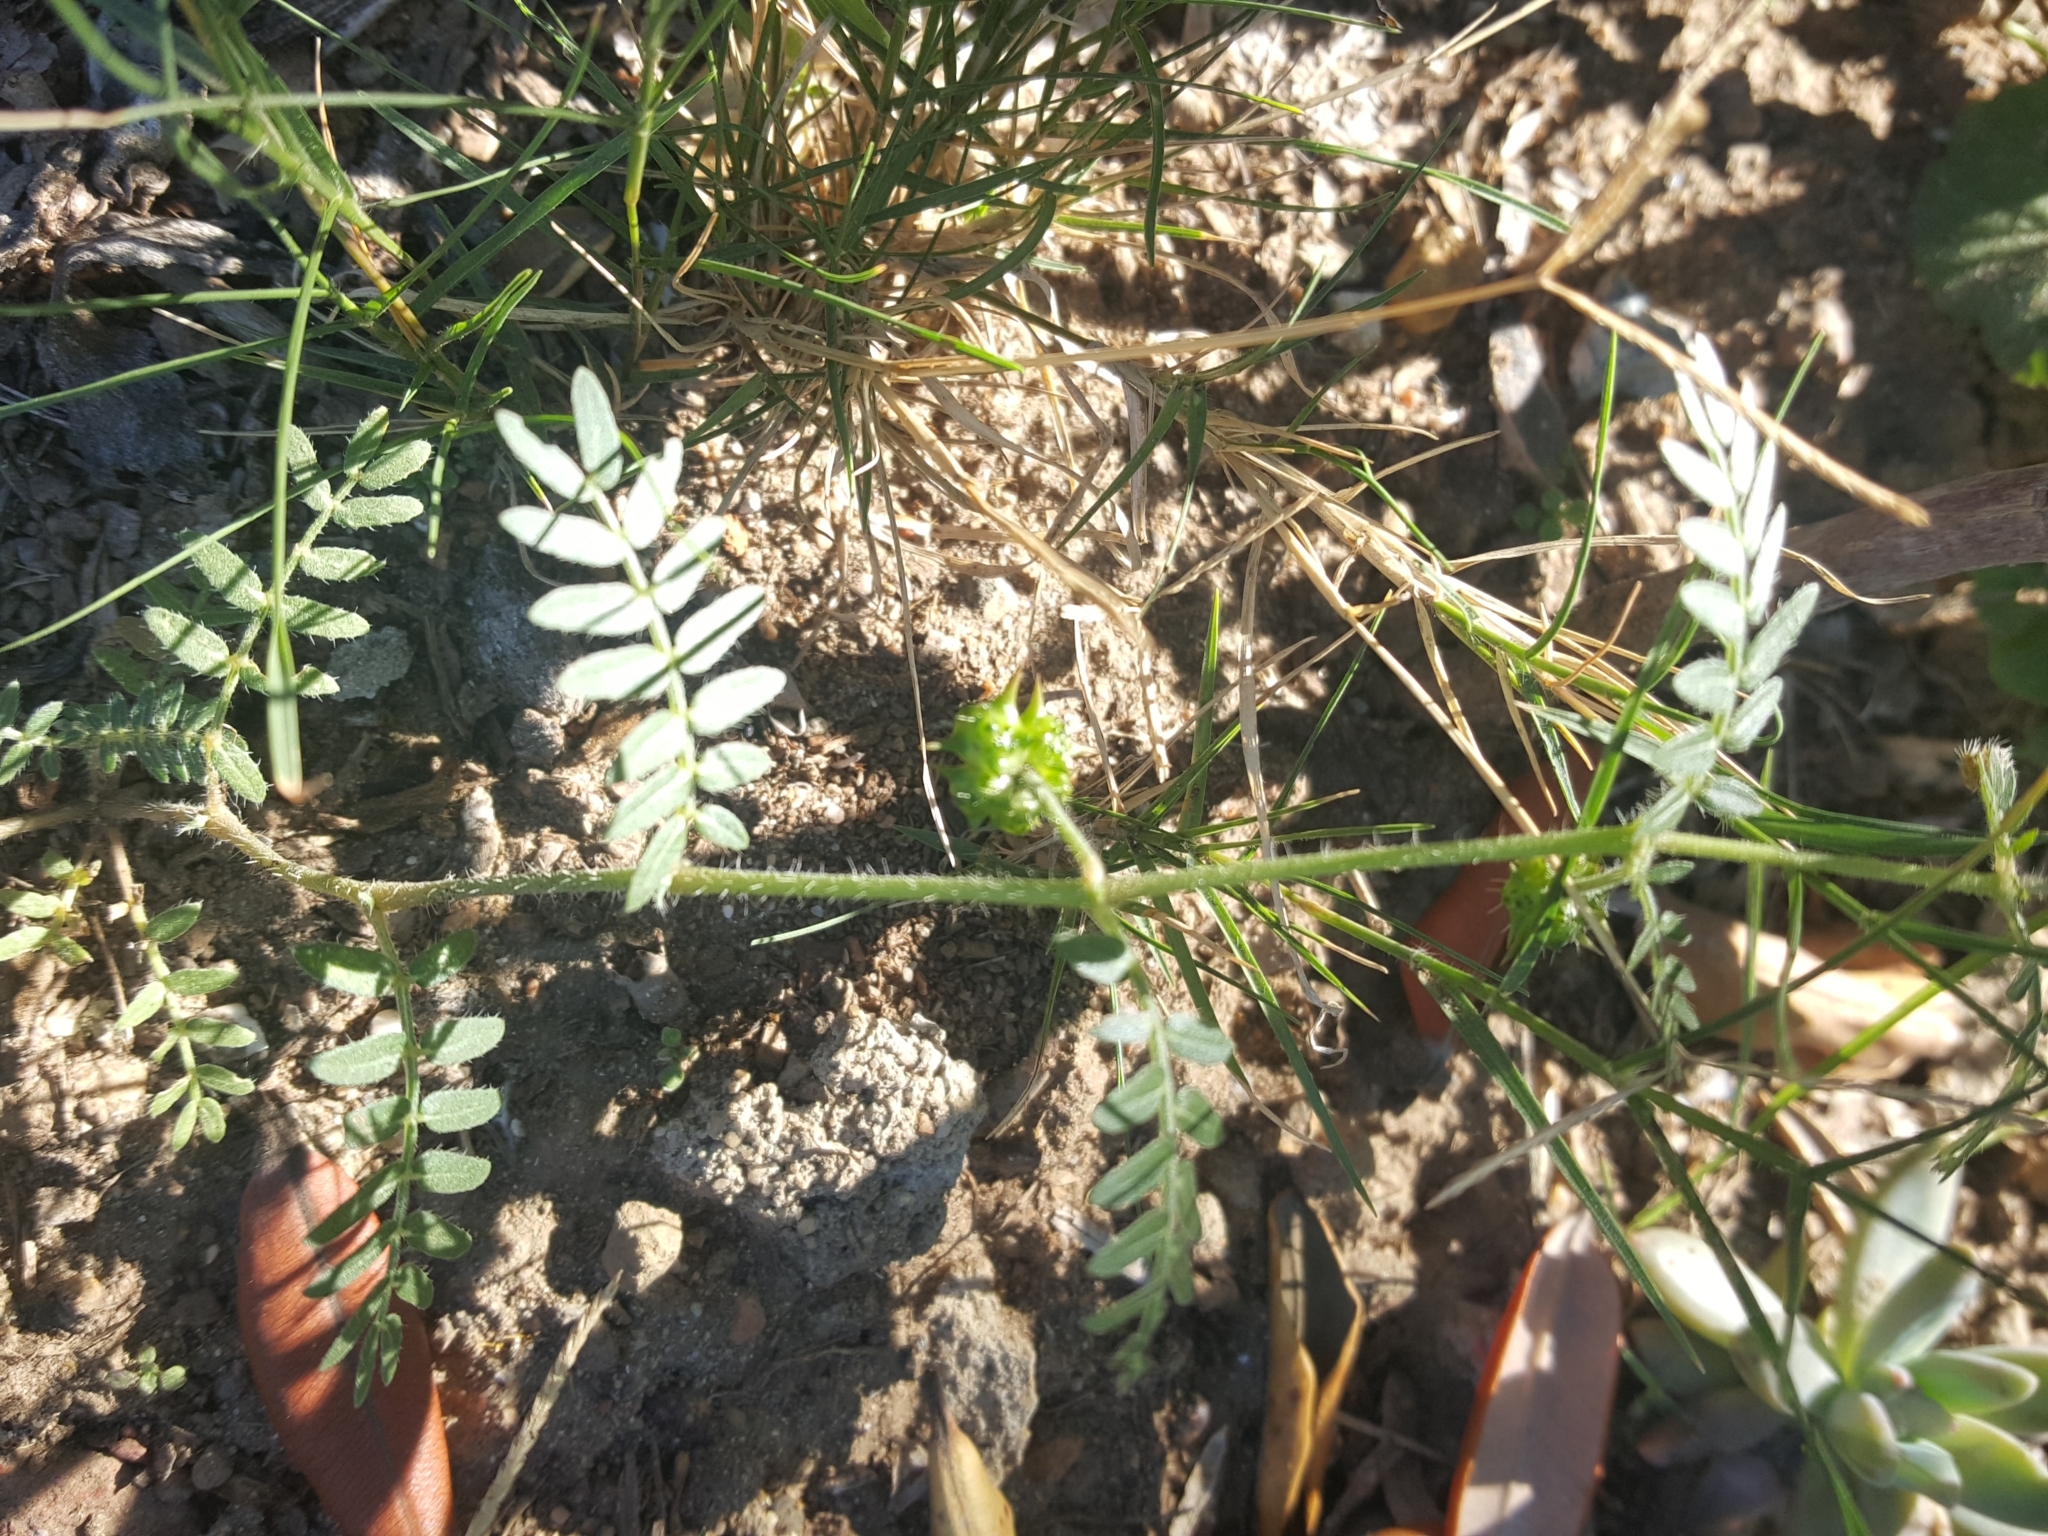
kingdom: Plantae
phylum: Tracheophyta
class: Magnoliopsida
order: Zygophyllales
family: Zygophyllaceae
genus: Tribulus
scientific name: Tribulus terrestris
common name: Puncturevine
